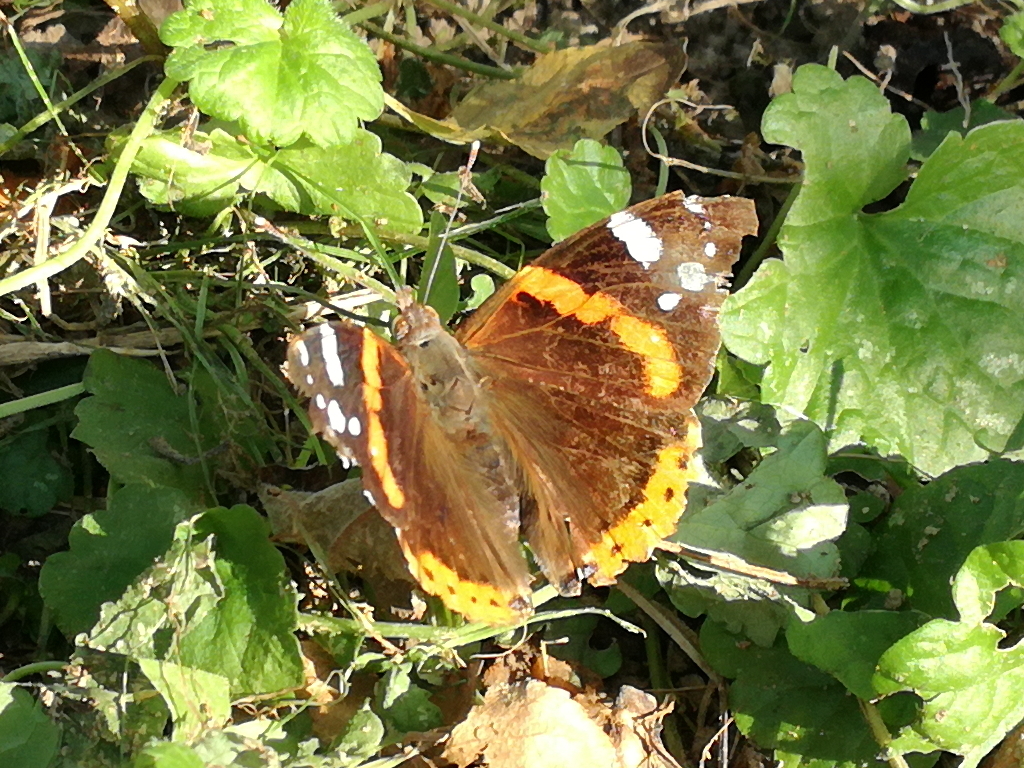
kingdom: Animalia
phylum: Arthropoda
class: Insecta
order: Lepidoptera
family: Nymphalidae
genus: Vanessa
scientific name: Vanessa atalanta
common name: Red admiral
